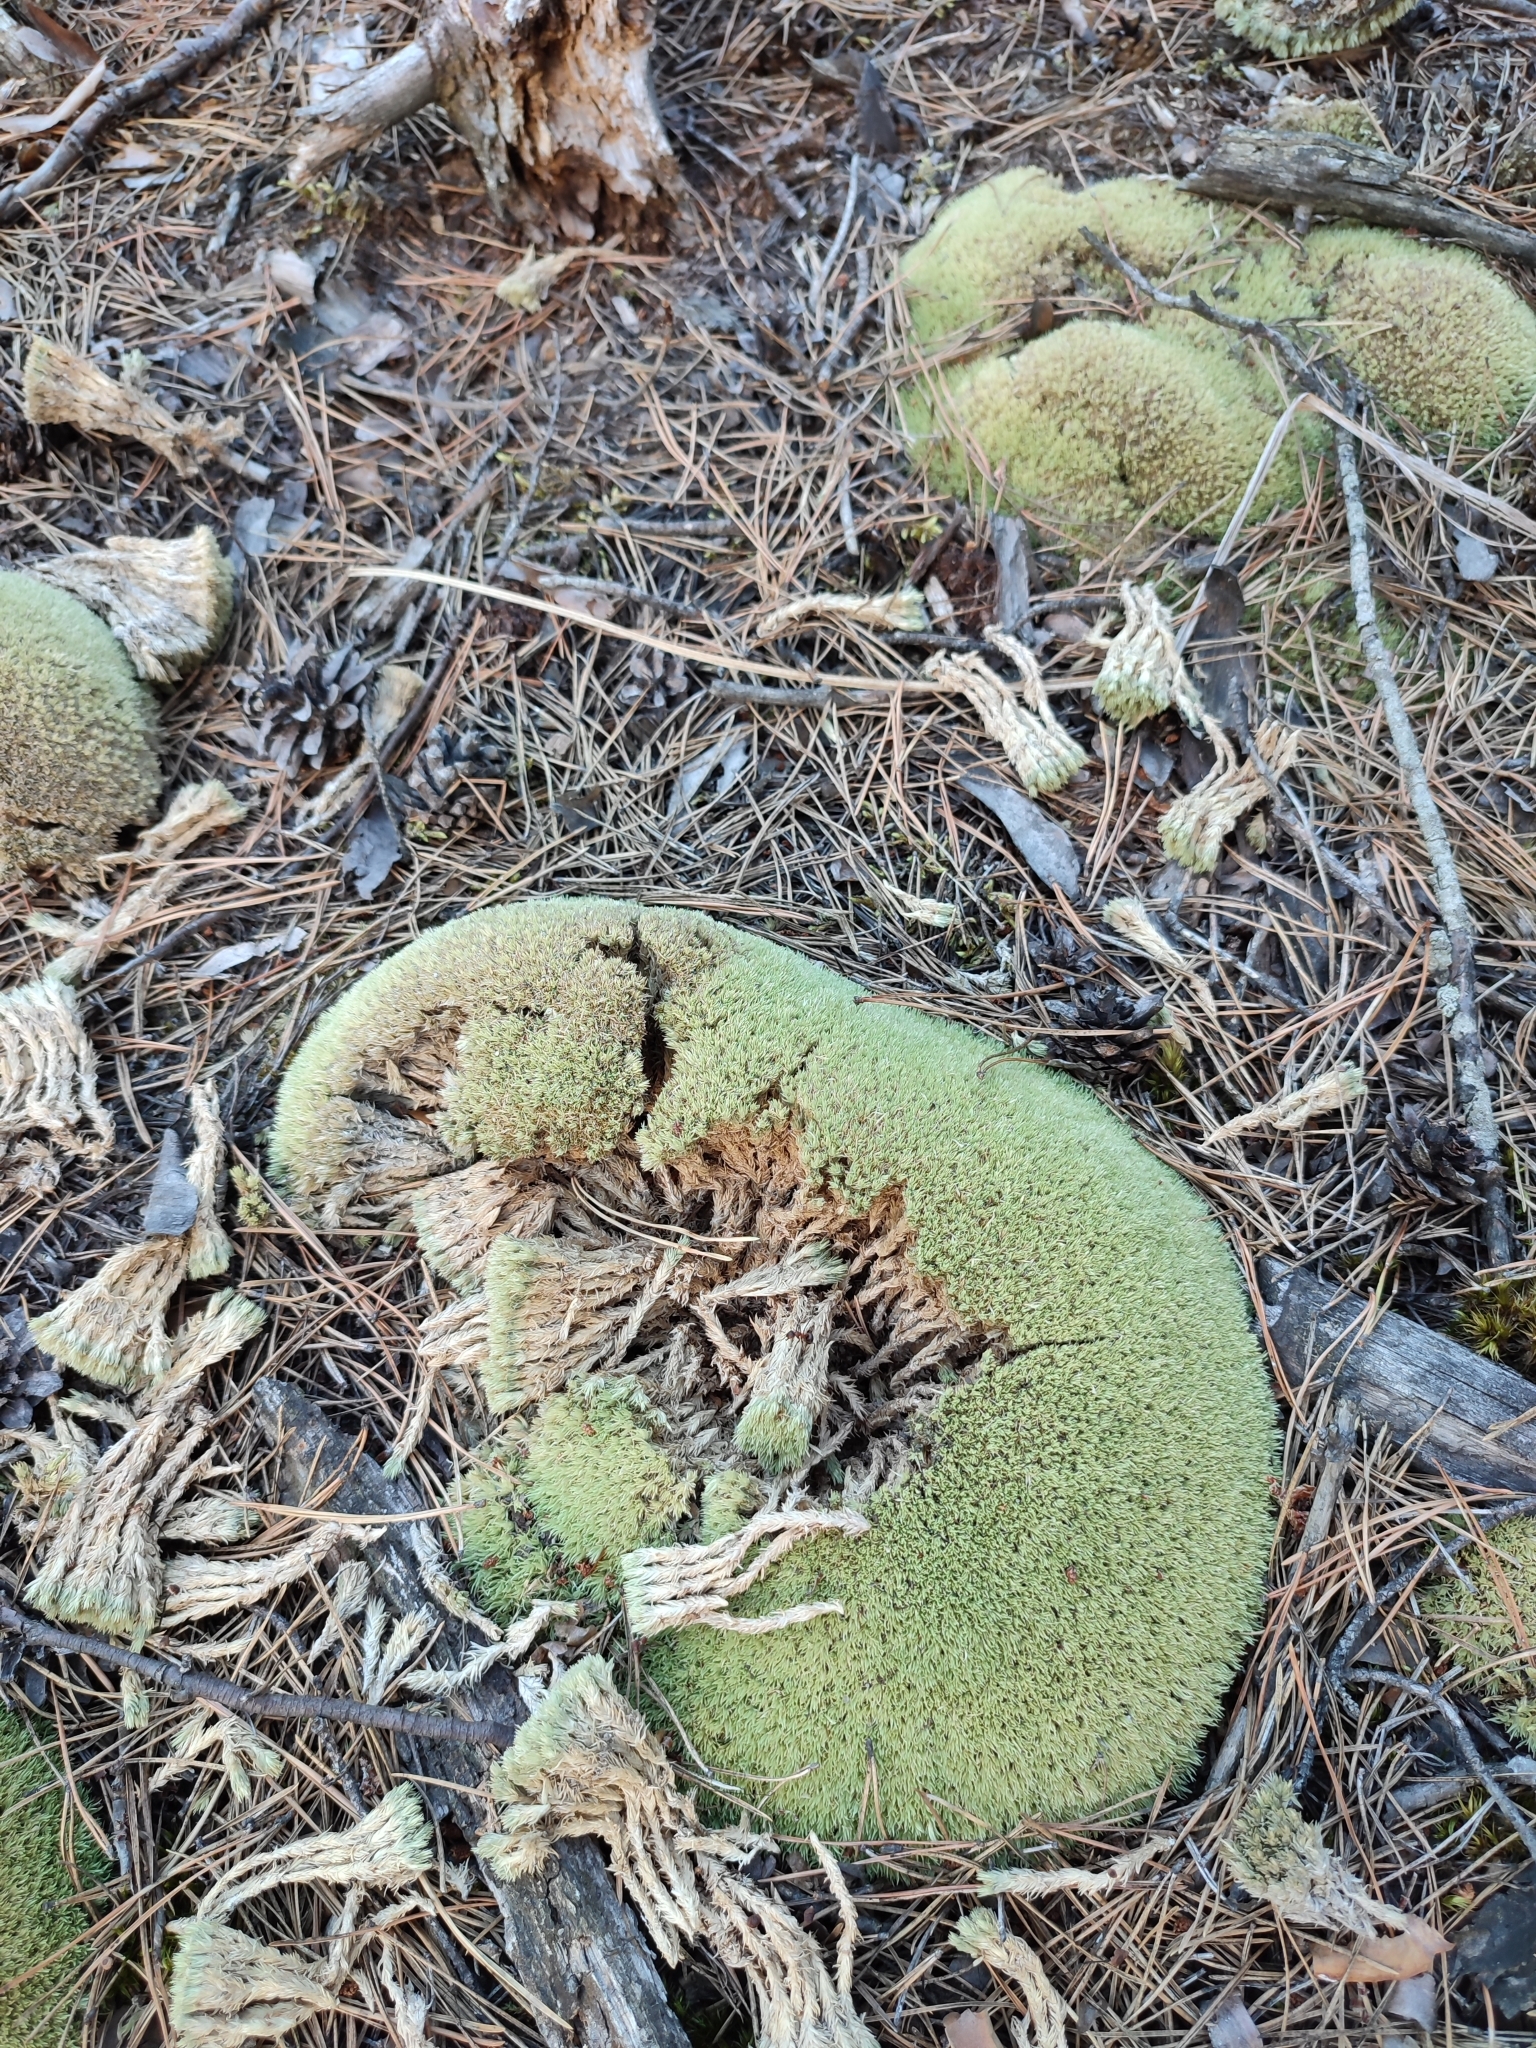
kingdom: Plantae
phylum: Bryophyta
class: Bryopsida
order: Dicranales
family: Leucobryaceae
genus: Leucobryum
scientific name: Leucobryum glaucum
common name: Large white-moss
